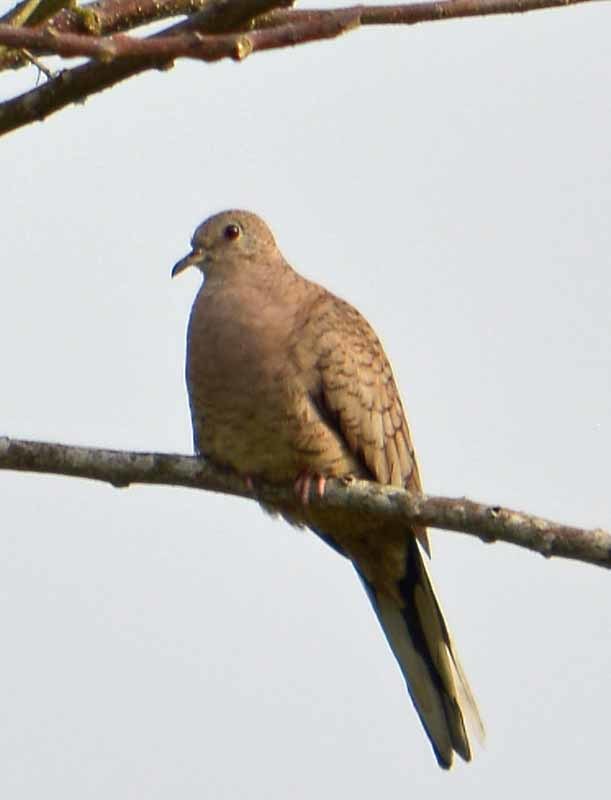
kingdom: Animalia
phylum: Chordata
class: Aves
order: Columbiformes
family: Columbidae
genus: Columbina
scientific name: Columbina inca
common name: Inca dove
